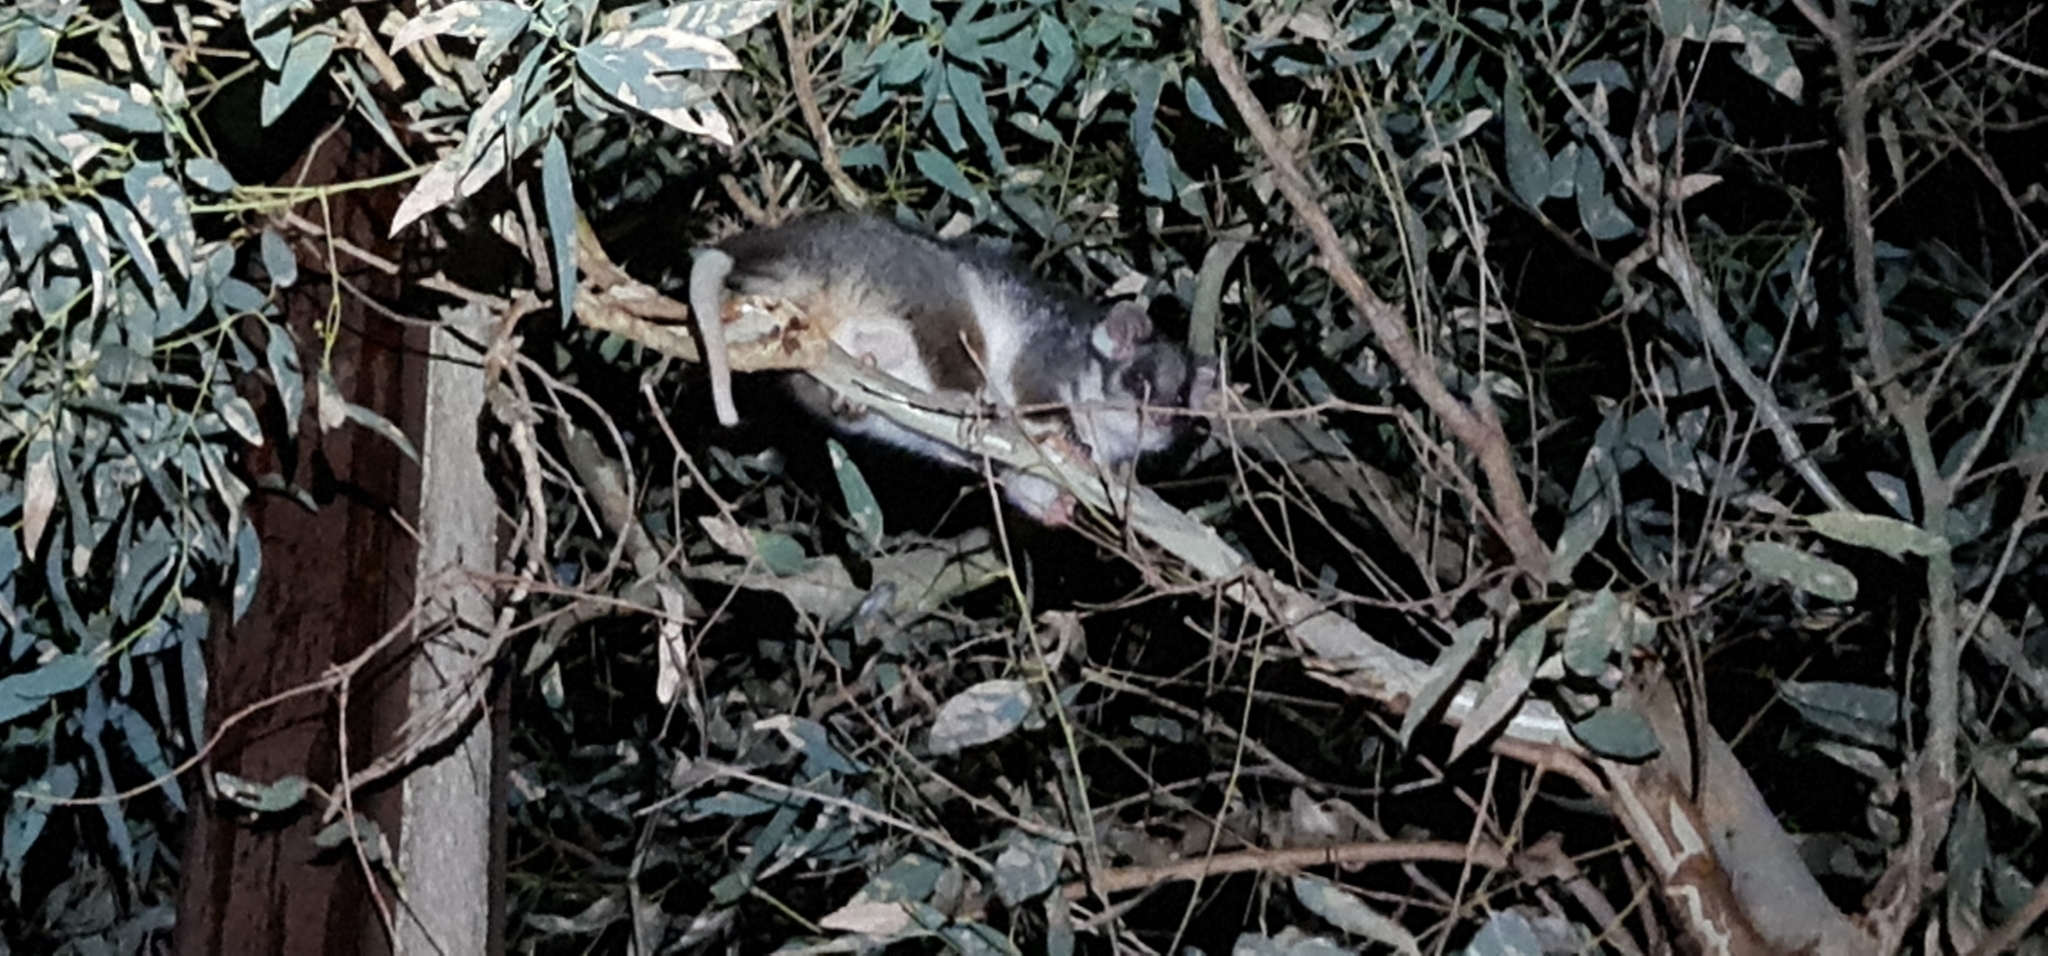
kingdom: Animalia
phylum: Chordata
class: Mammalia
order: Diprotodontia
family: Pseudocheiridae
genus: Pseudocheirus
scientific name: Pseudocheirus peregrinus
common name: Common ringtail possum
